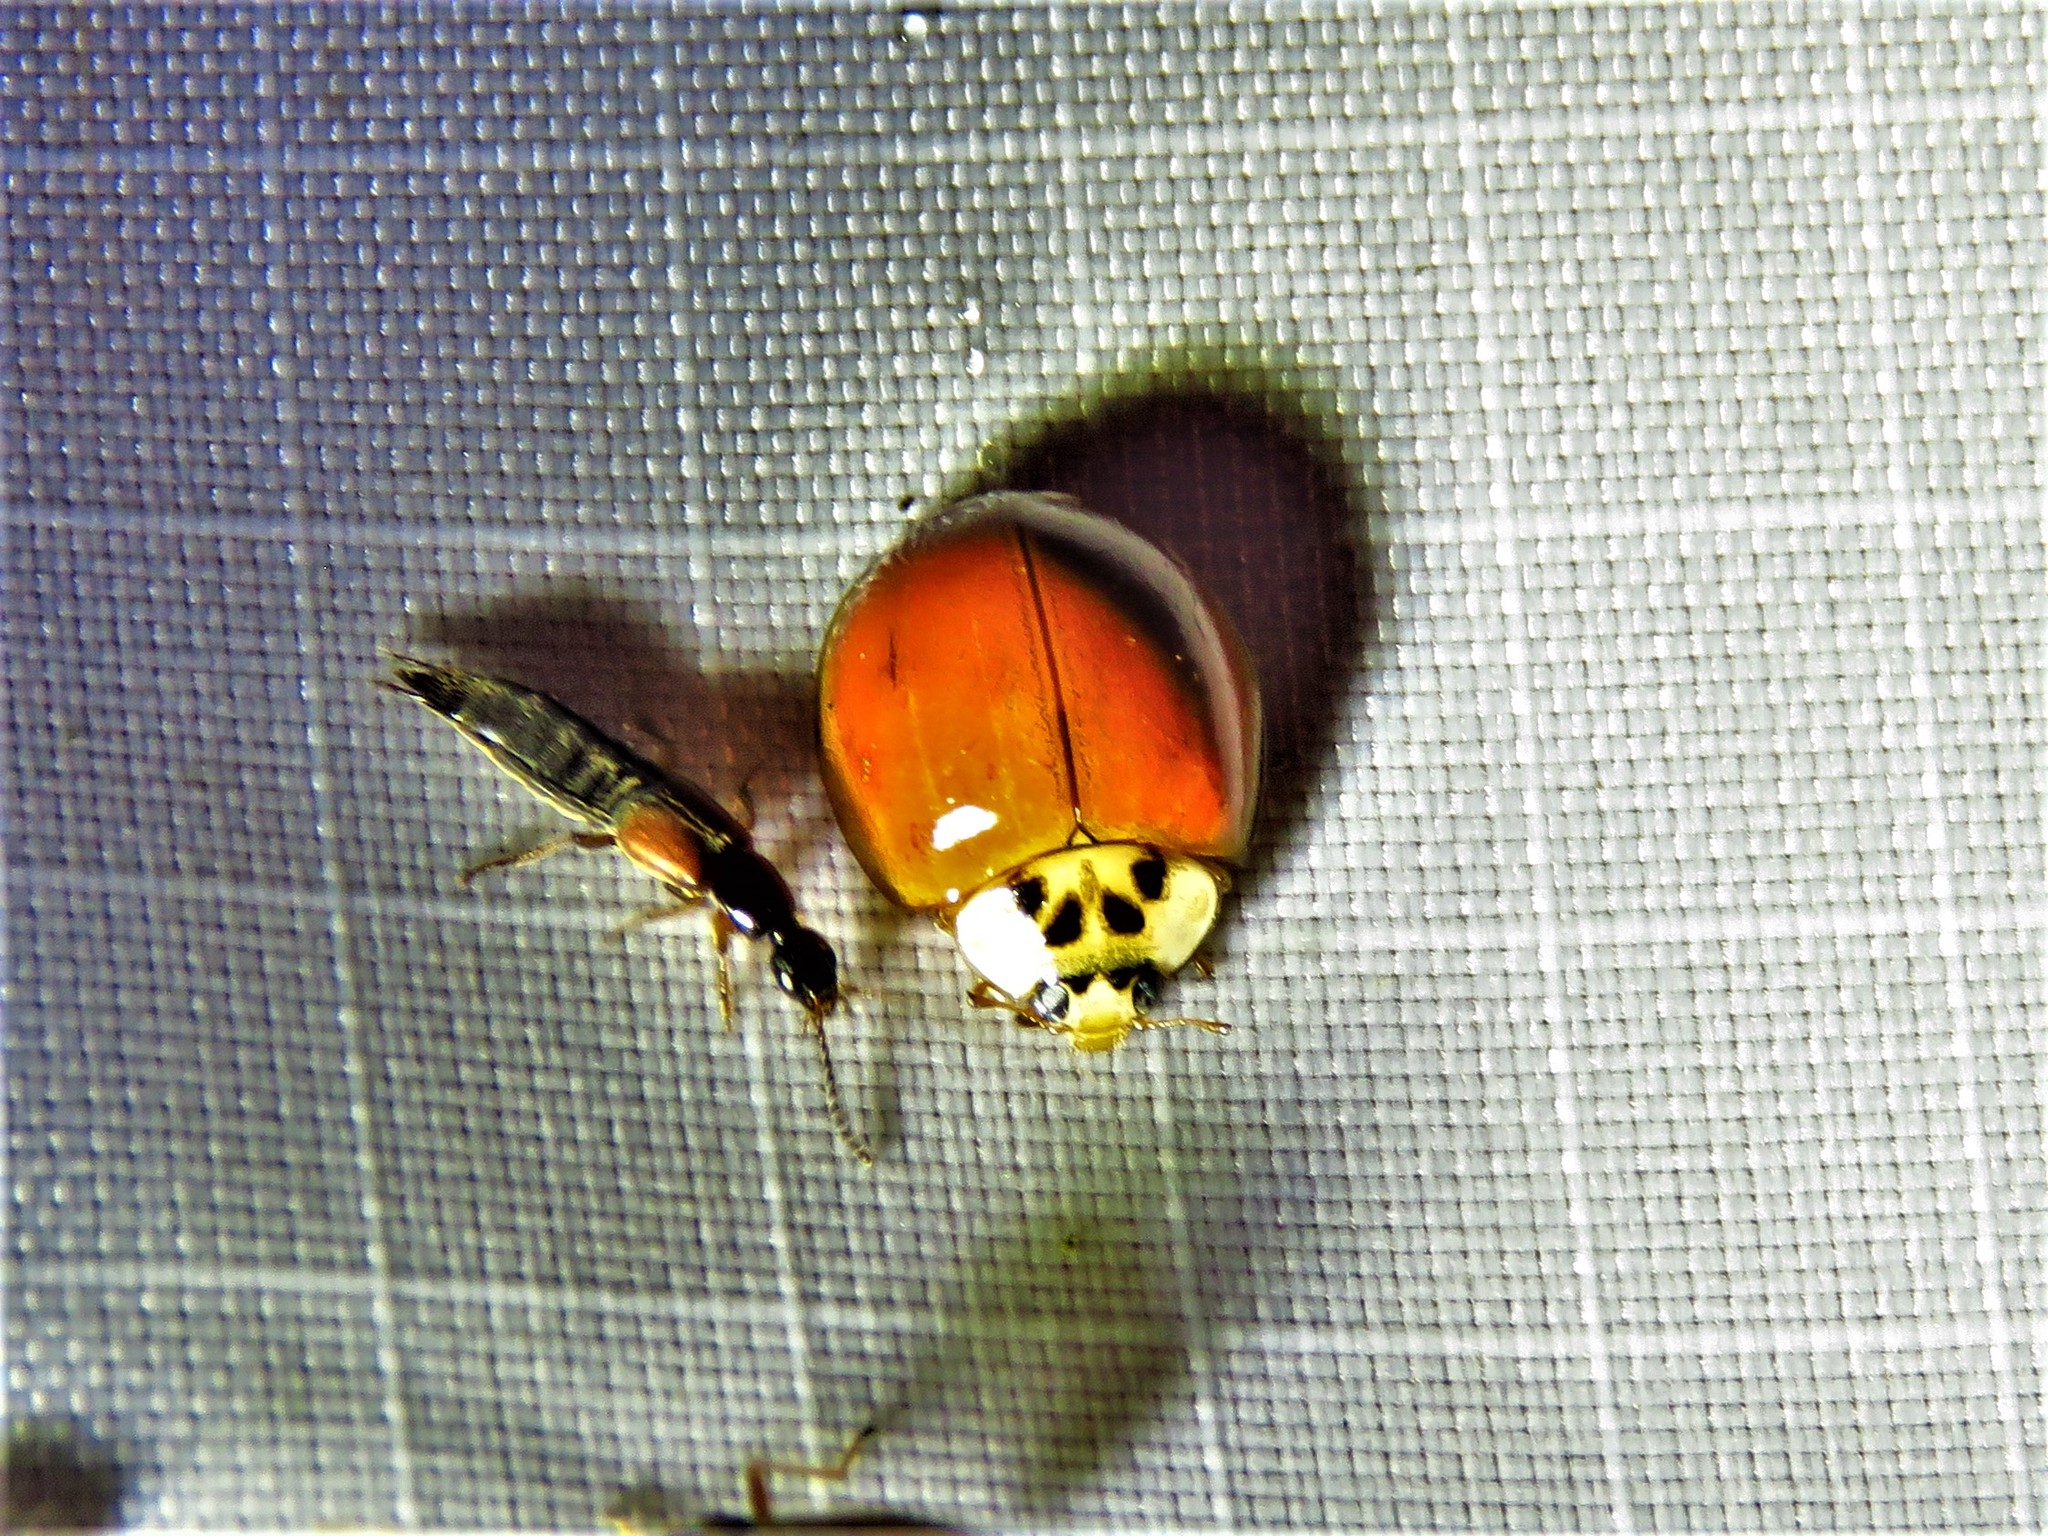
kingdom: Animalia
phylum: Arthropoda
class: Insecta
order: Coleoptera
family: Coccinellidae
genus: Harmonia
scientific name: Harmonia axyridis
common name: Harlequin ladybird
